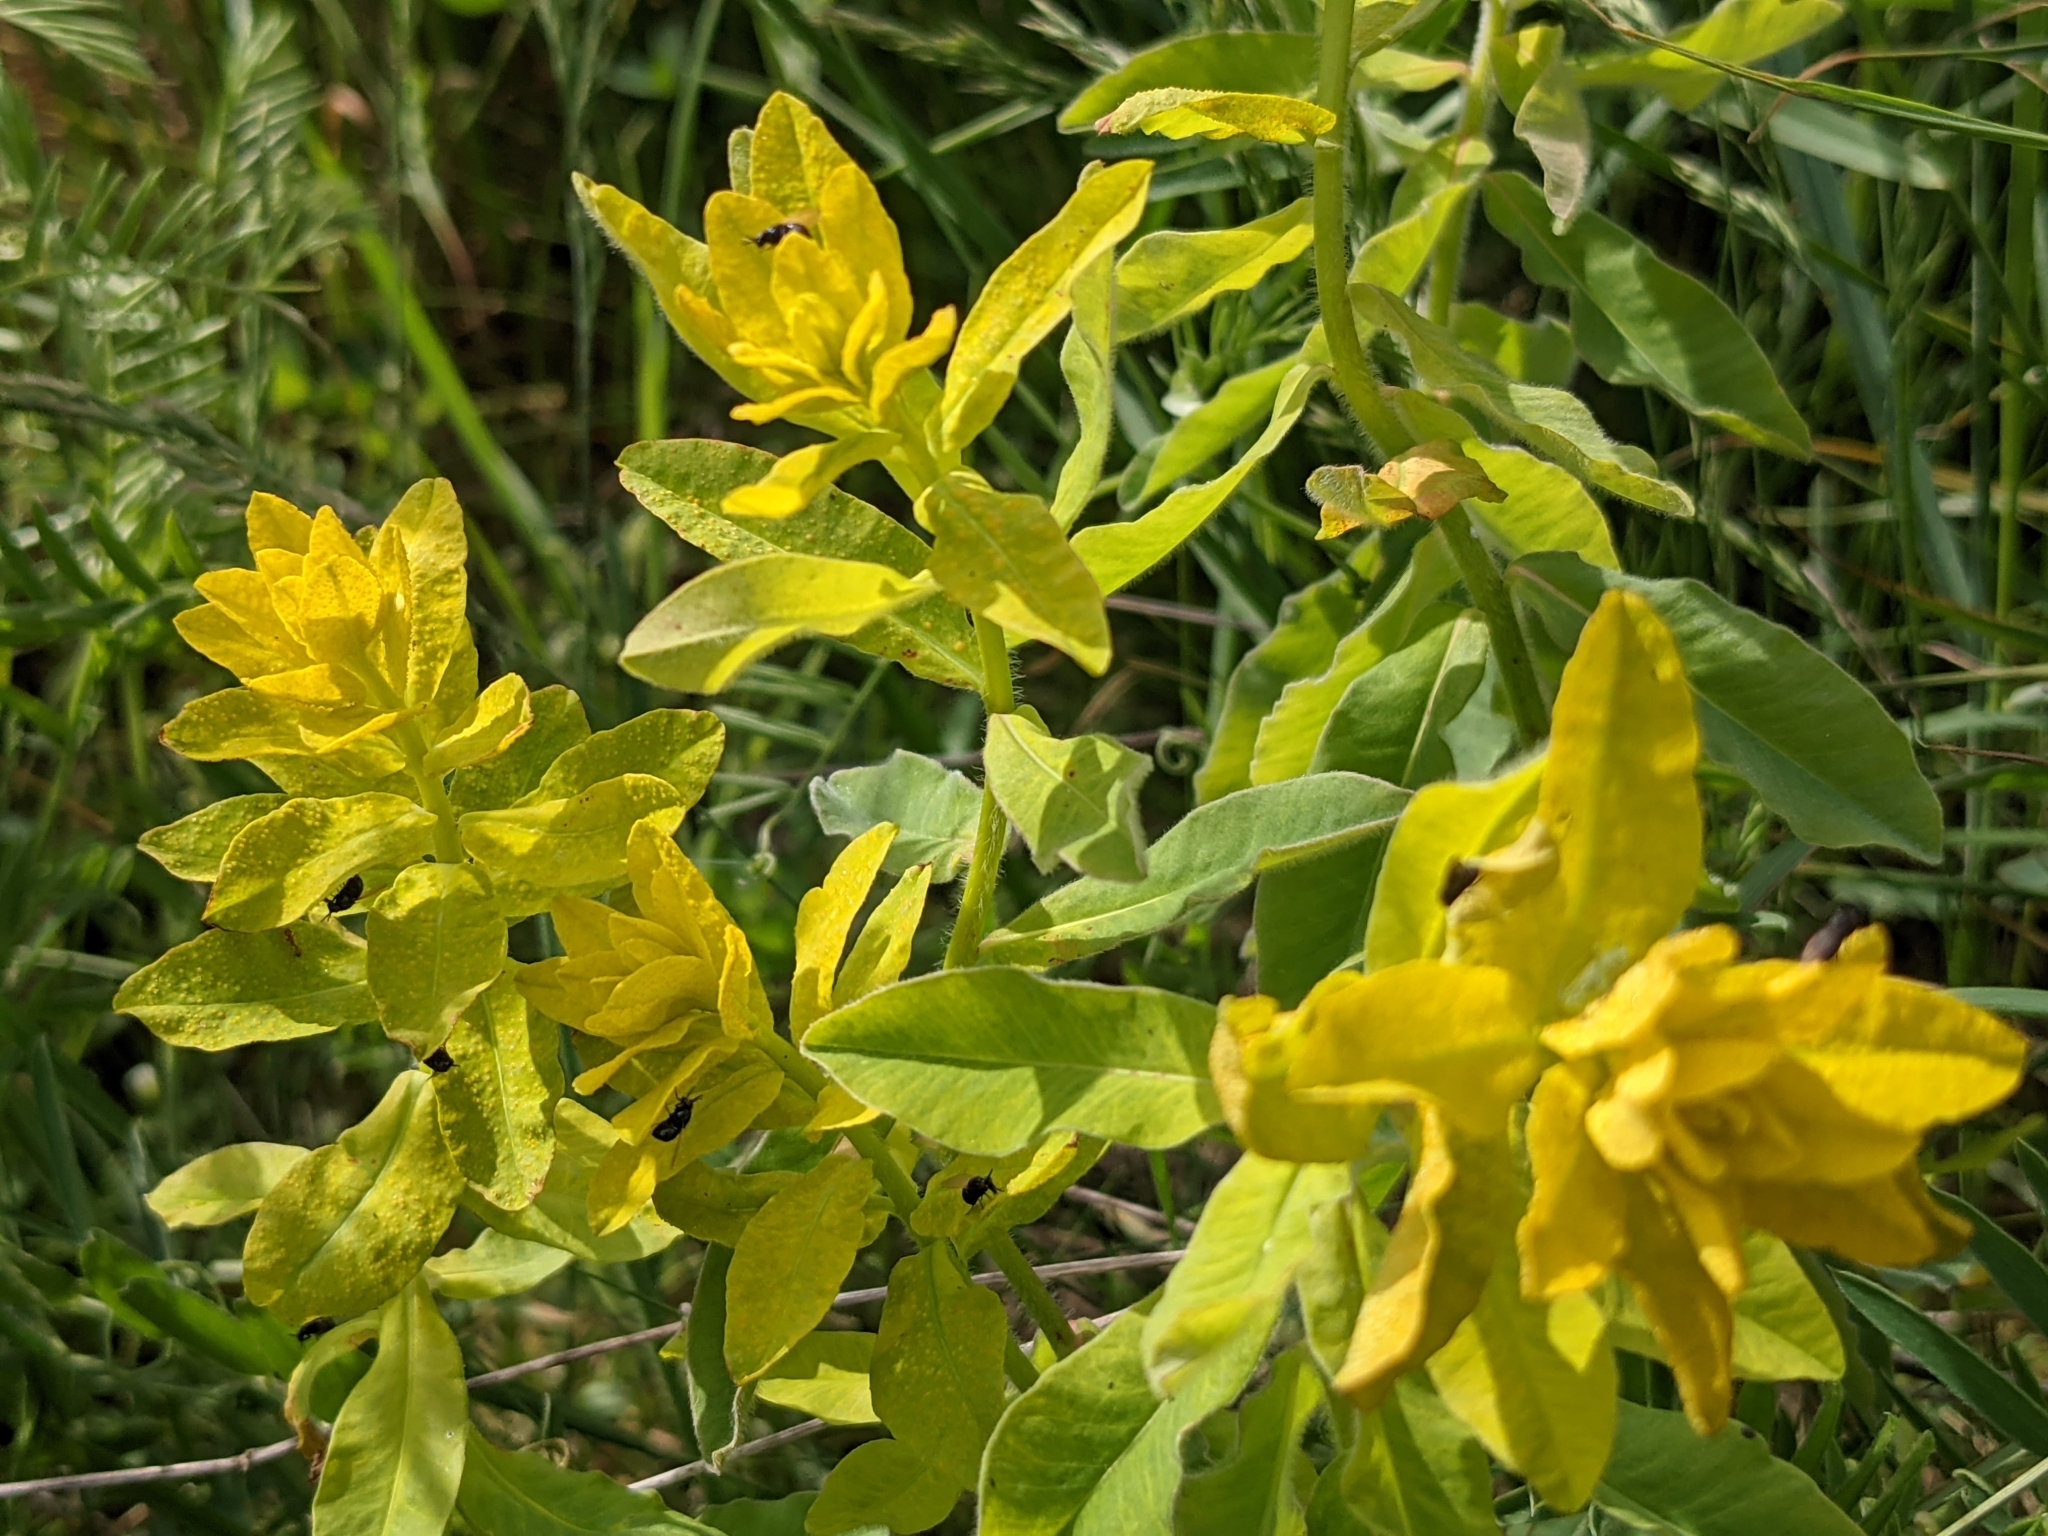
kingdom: Plantae
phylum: Tracheophyta
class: Magnoliopsida
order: Malpighiales
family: Euphorbiaceae
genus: Euphorbia
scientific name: Euphorbia epithymoides
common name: Cushion spurge
